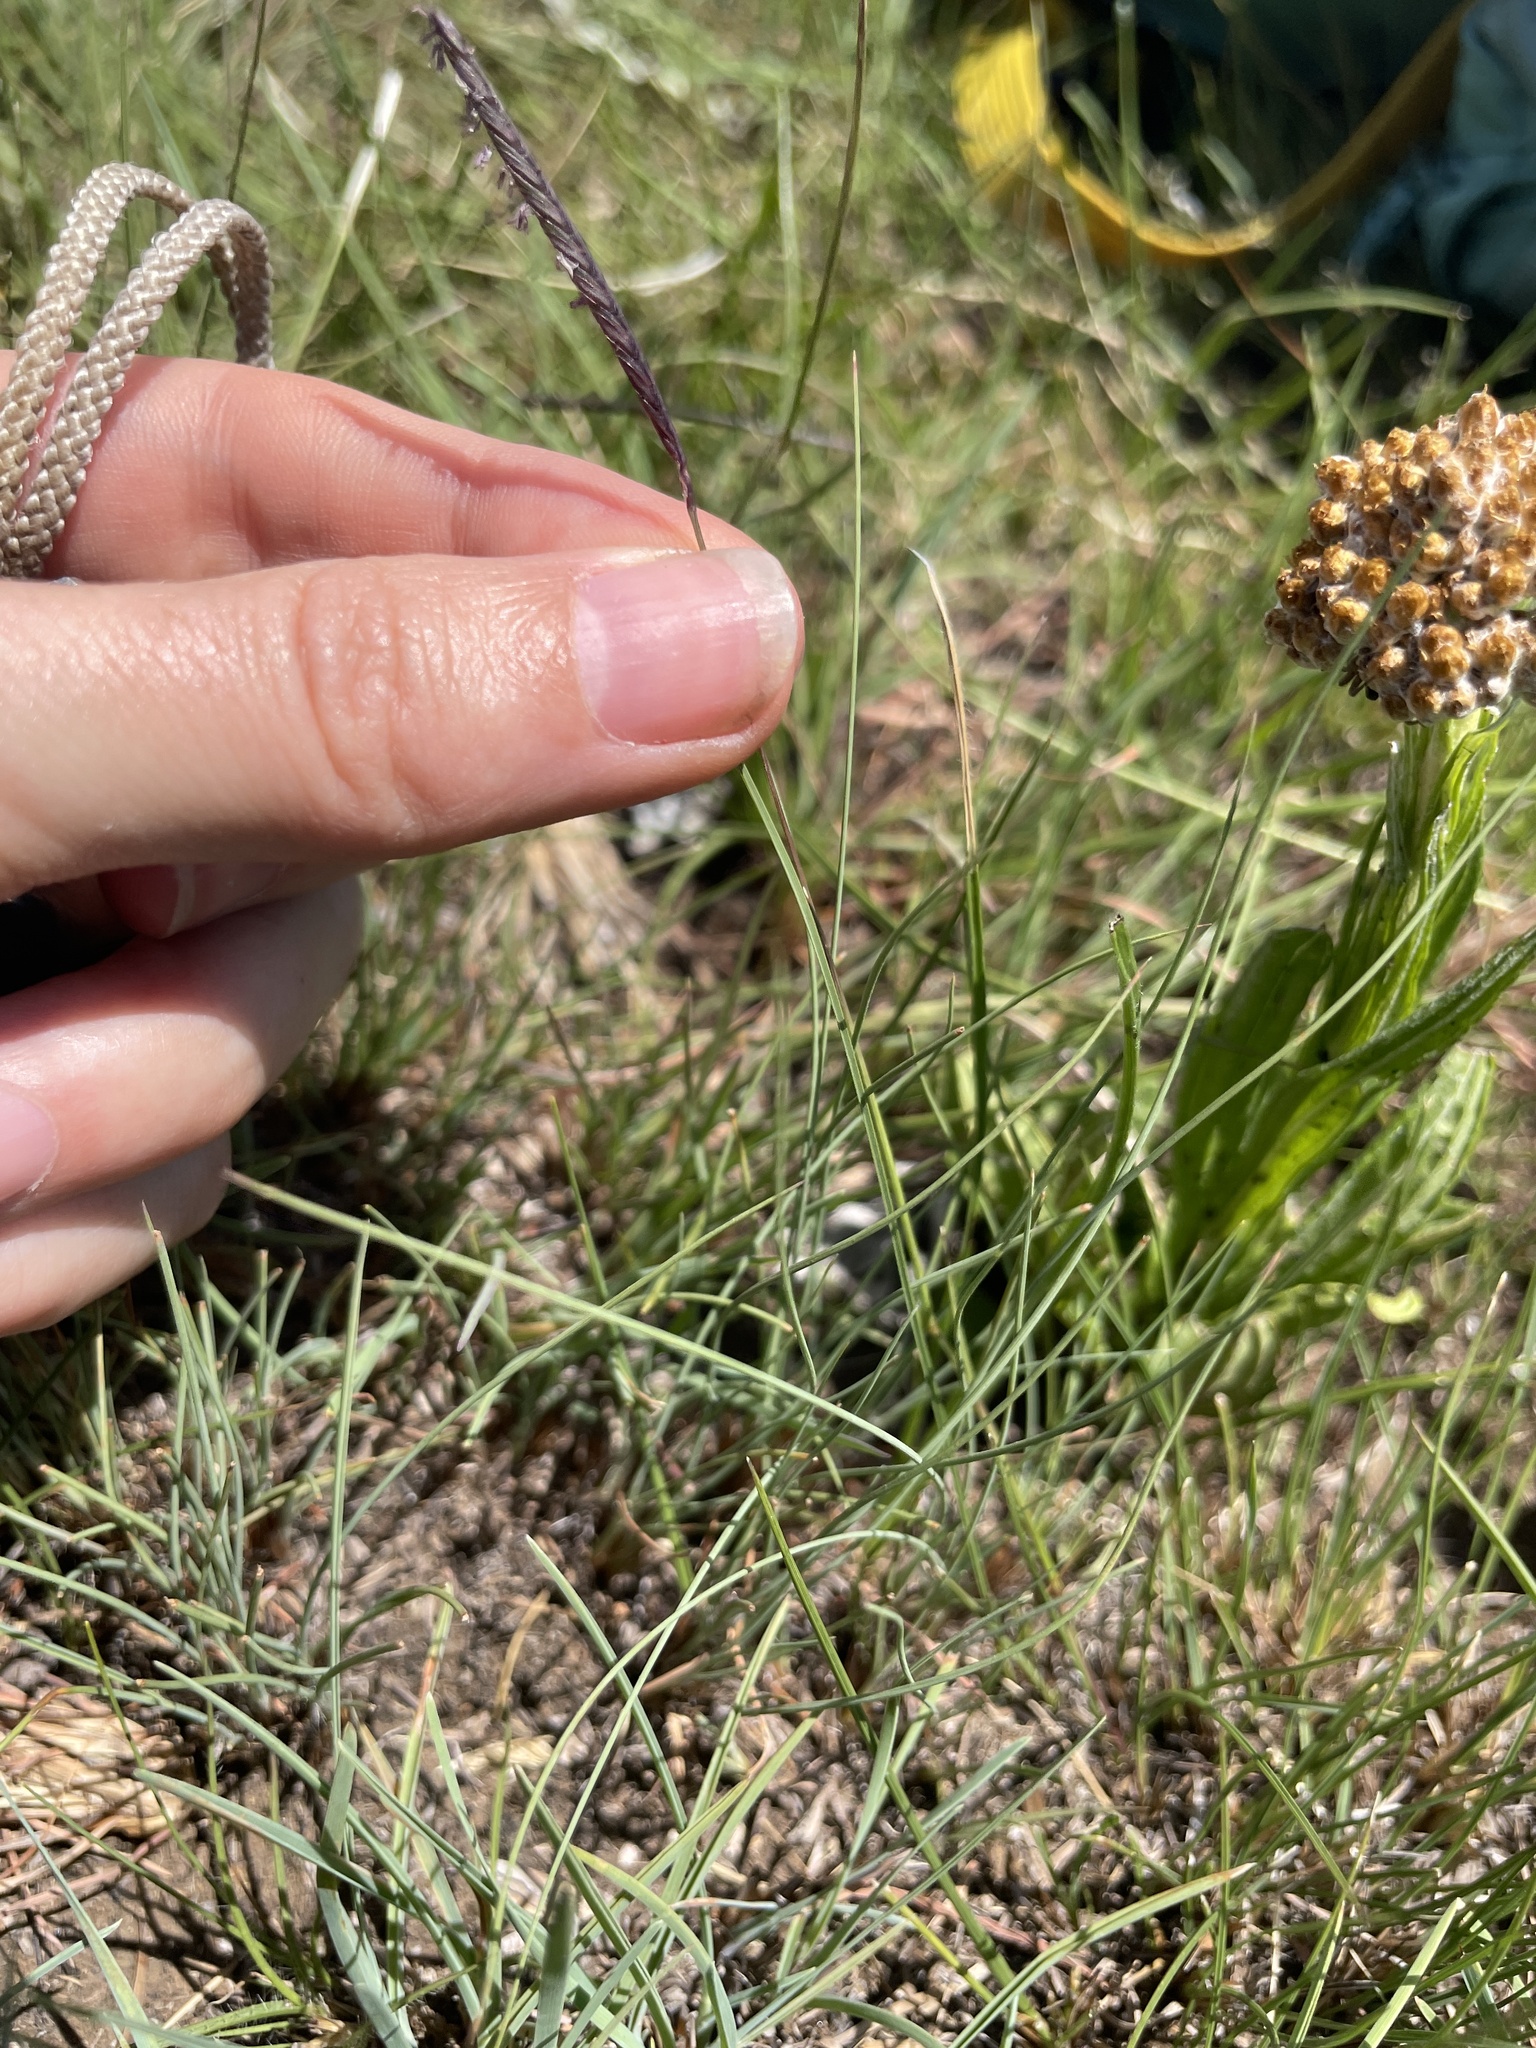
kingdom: Plantae
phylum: Tracheophyta
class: Liliopsida
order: Poales
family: Poaceae
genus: Microchloa
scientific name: Microchloa altera
